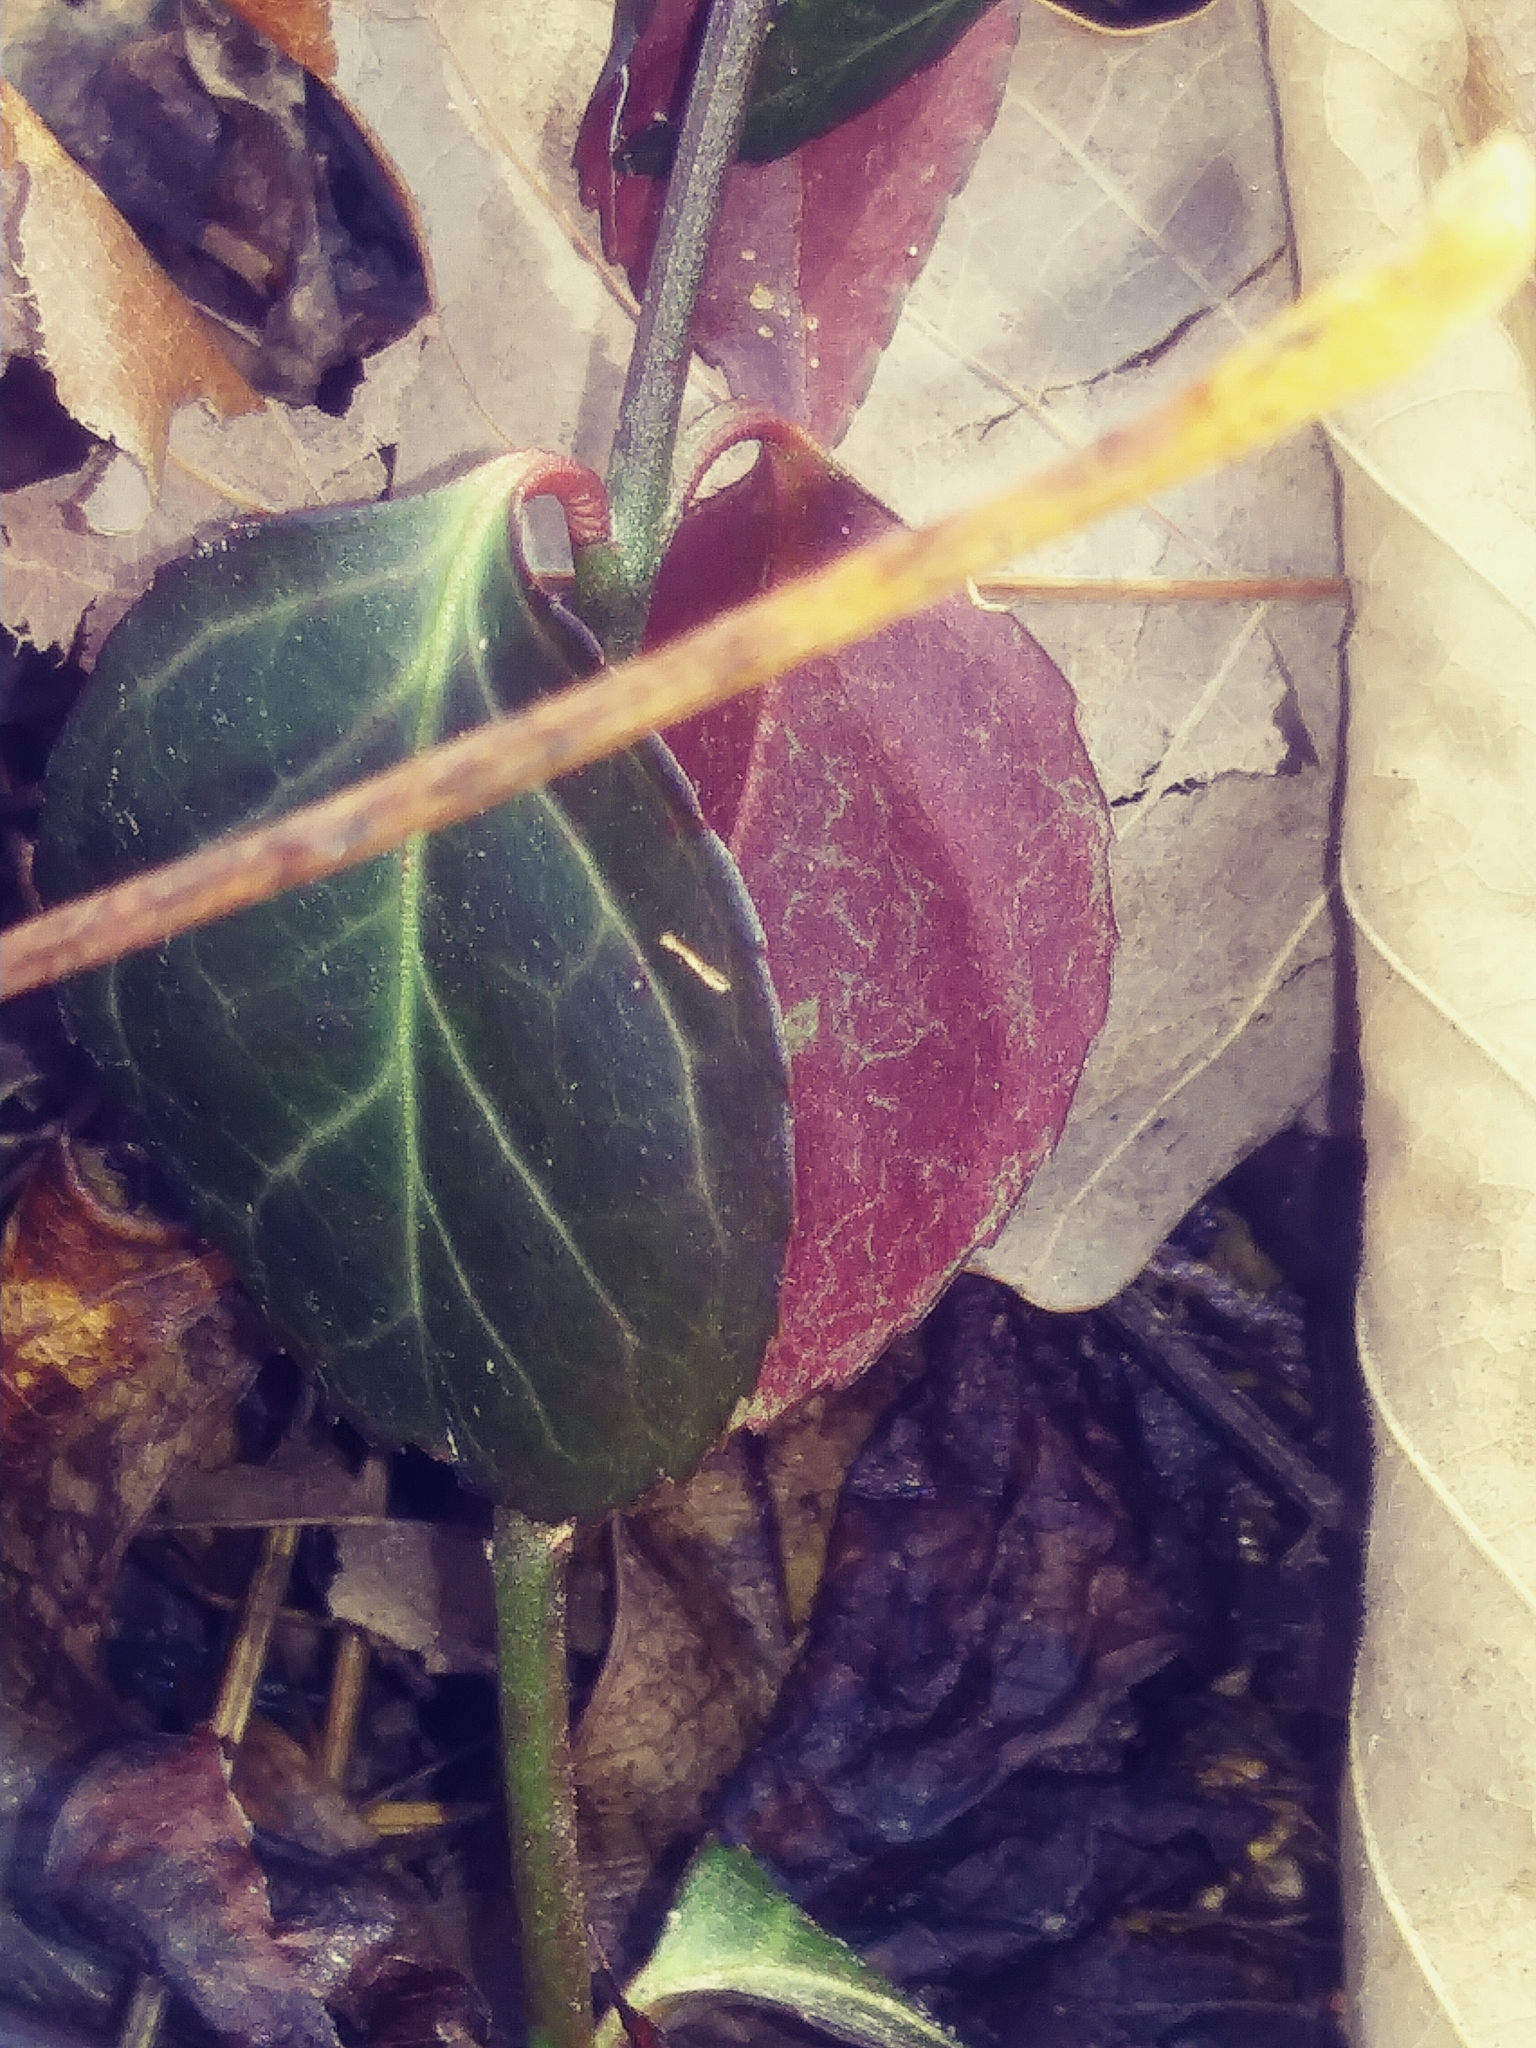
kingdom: Plantae
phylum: Tracheophyta
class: Magnoliopsida
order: Celastrales
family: Celastraceae
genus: Euonymus
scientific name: Euonymus fortunei
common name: Climbing euonymus
